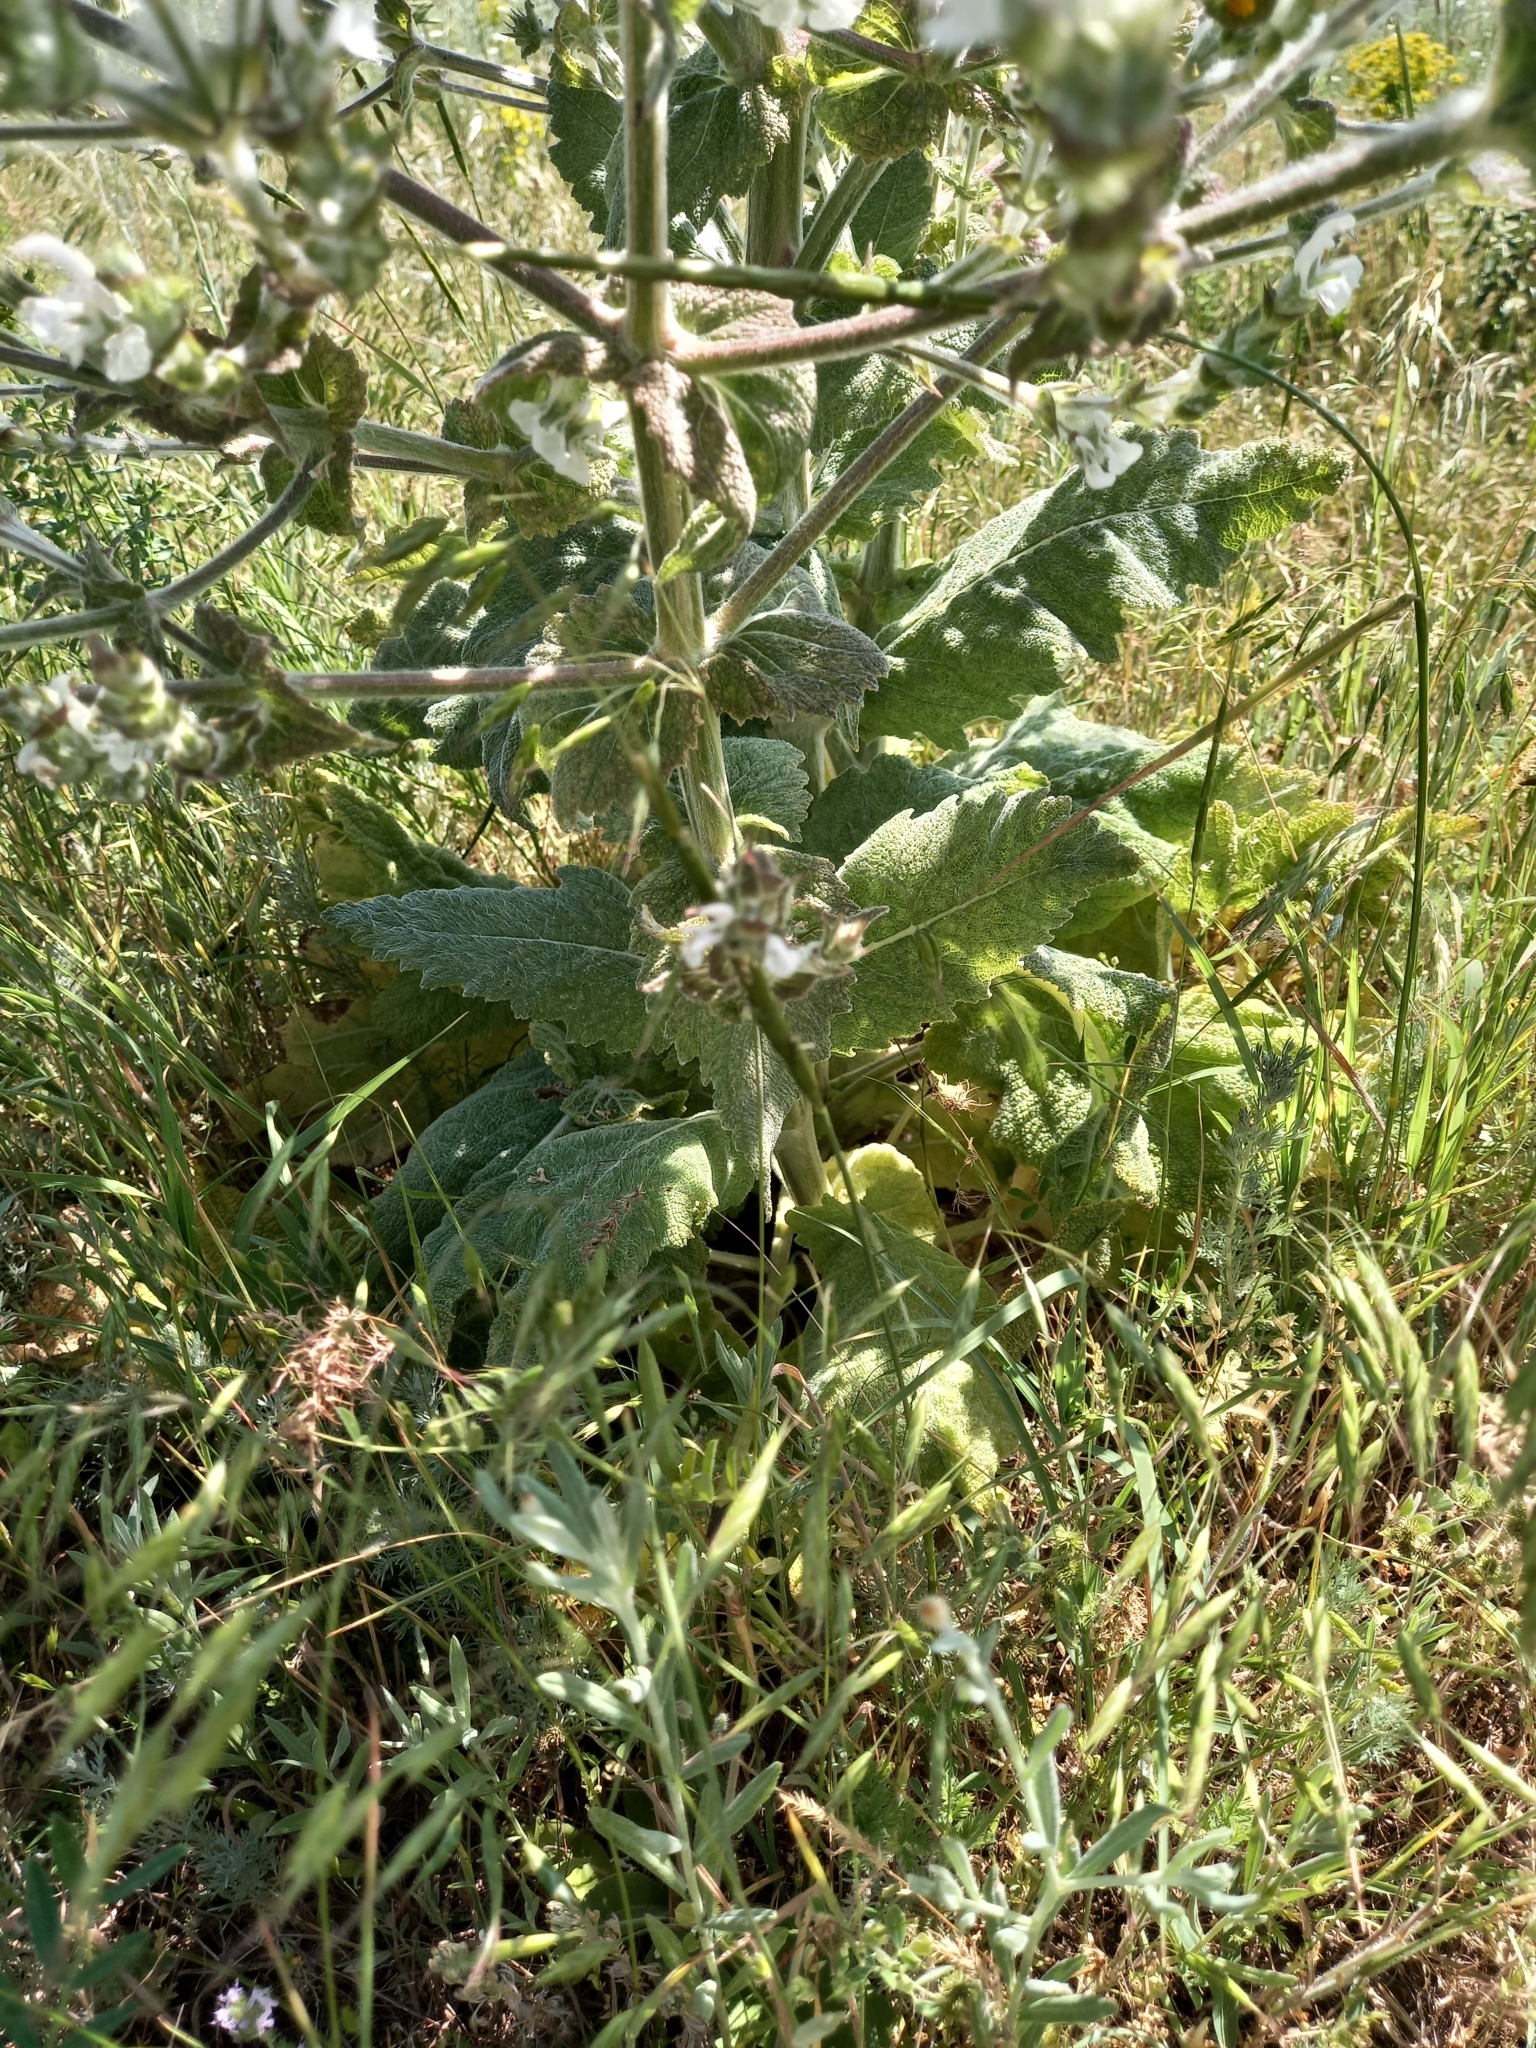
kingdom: Plantae
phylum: Tracheophyta
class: Magnoliopsida
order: Lamiales
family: Lamiaceae
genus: Salvia
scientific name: Salvia aethiopis
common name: Mediterranean sage
